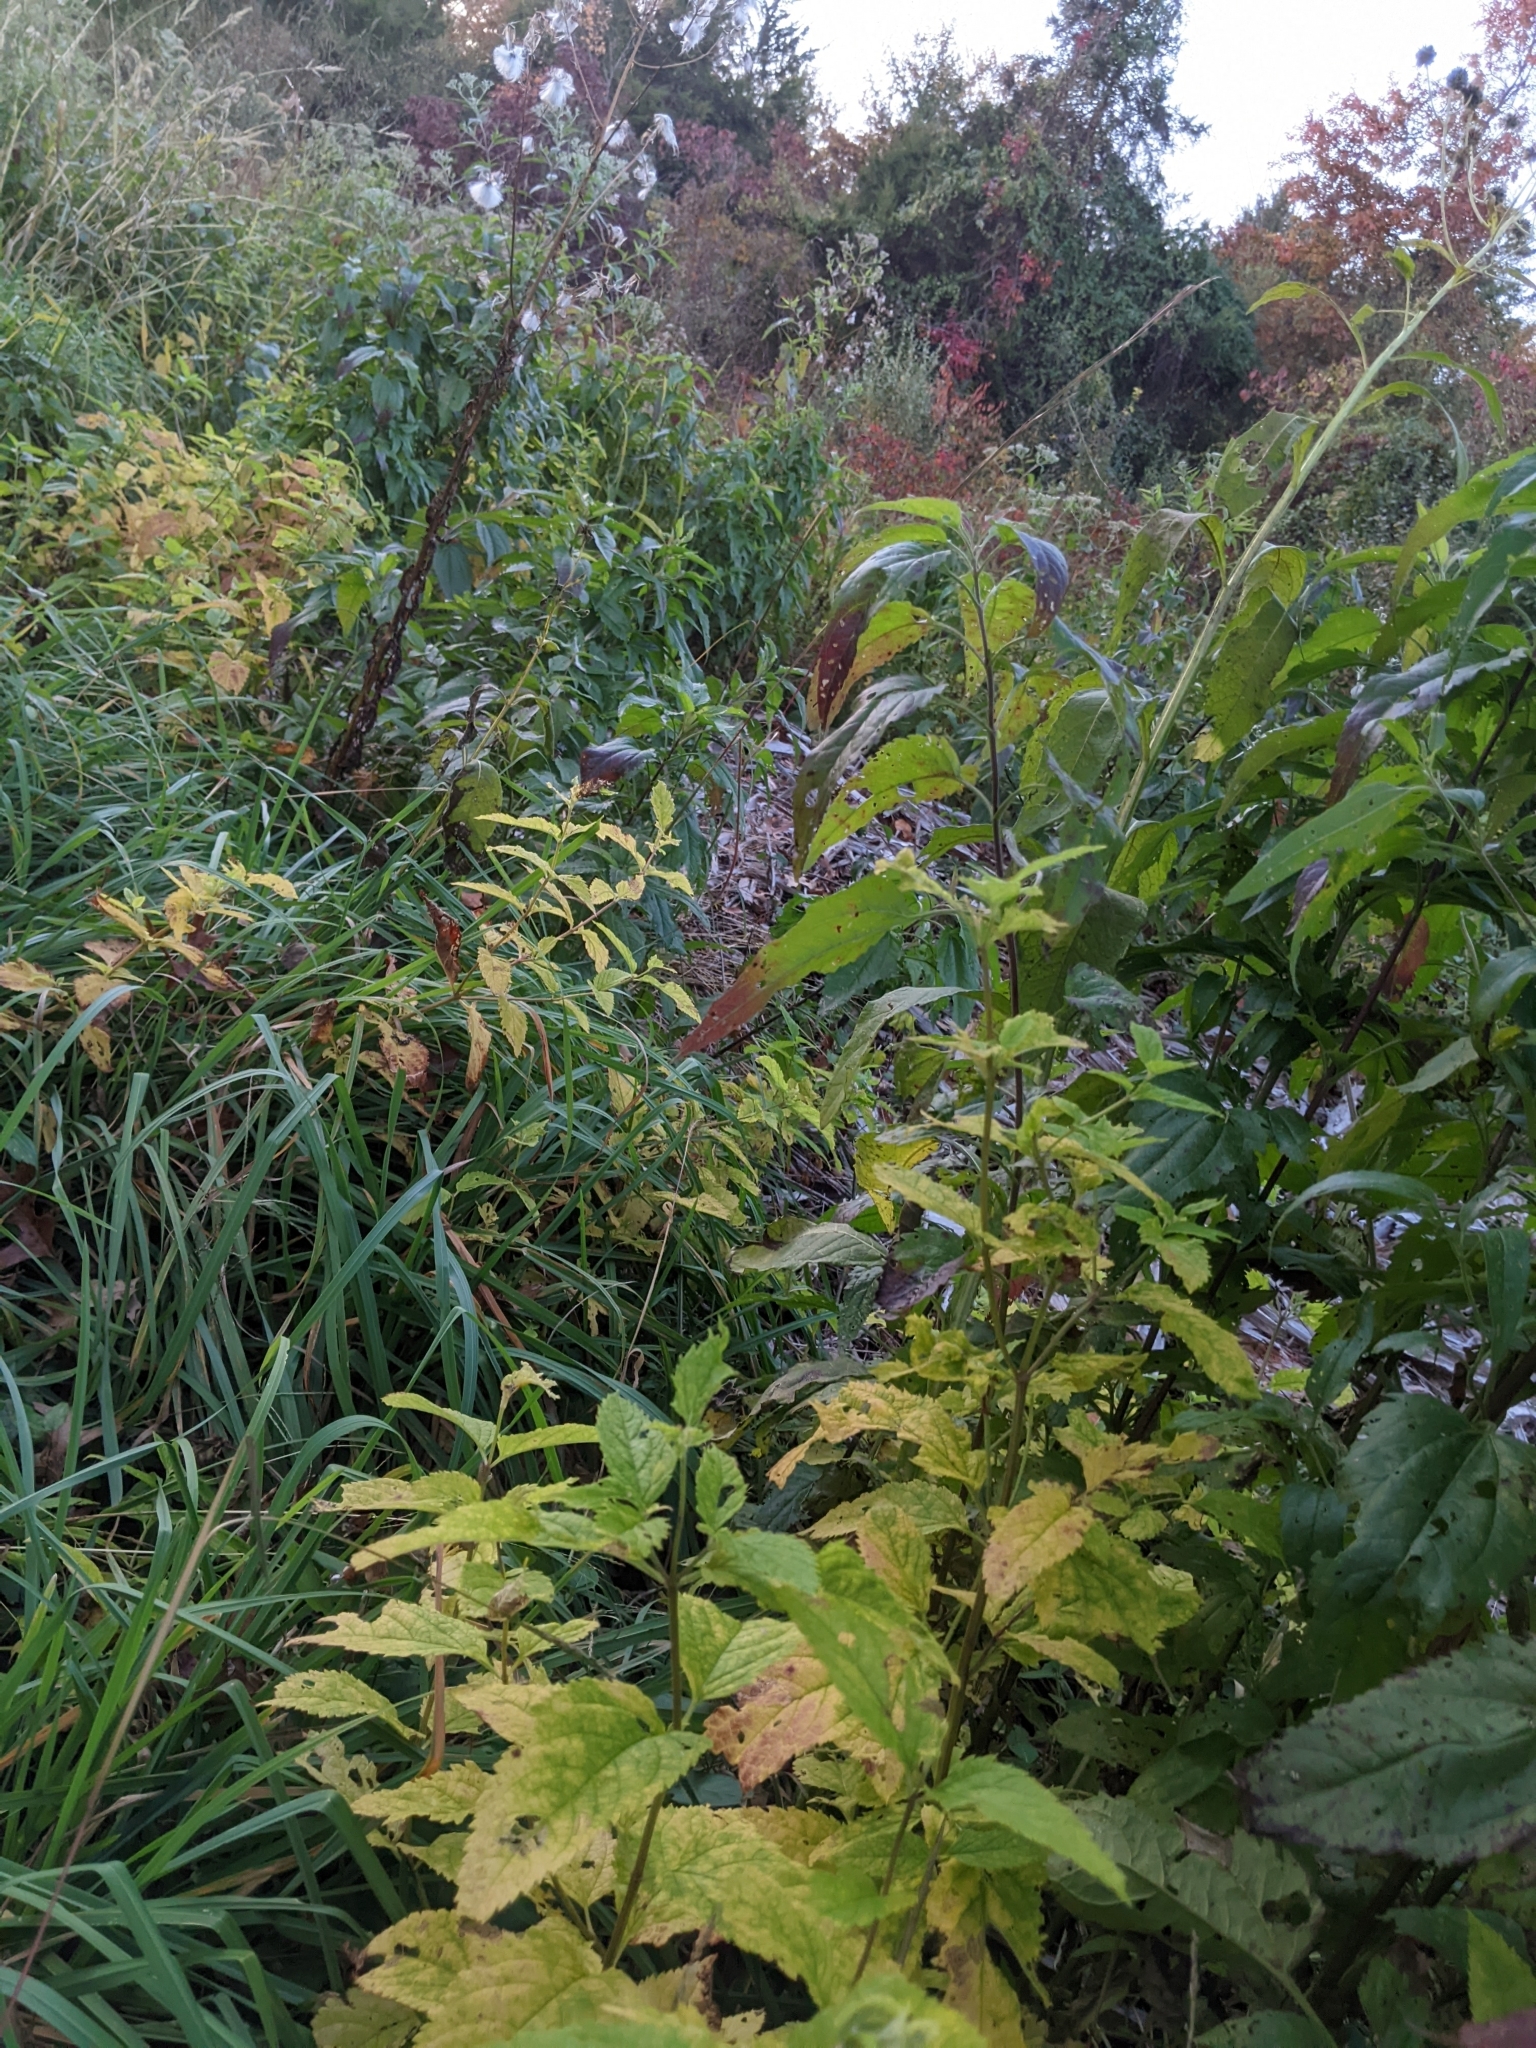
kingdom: Plantae
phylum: Tracheophyta
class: Magnoliopsida
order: Asterales
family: Asteraceae
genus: Verbesina
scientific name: Verbesina alternifolia
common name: Wingstem
